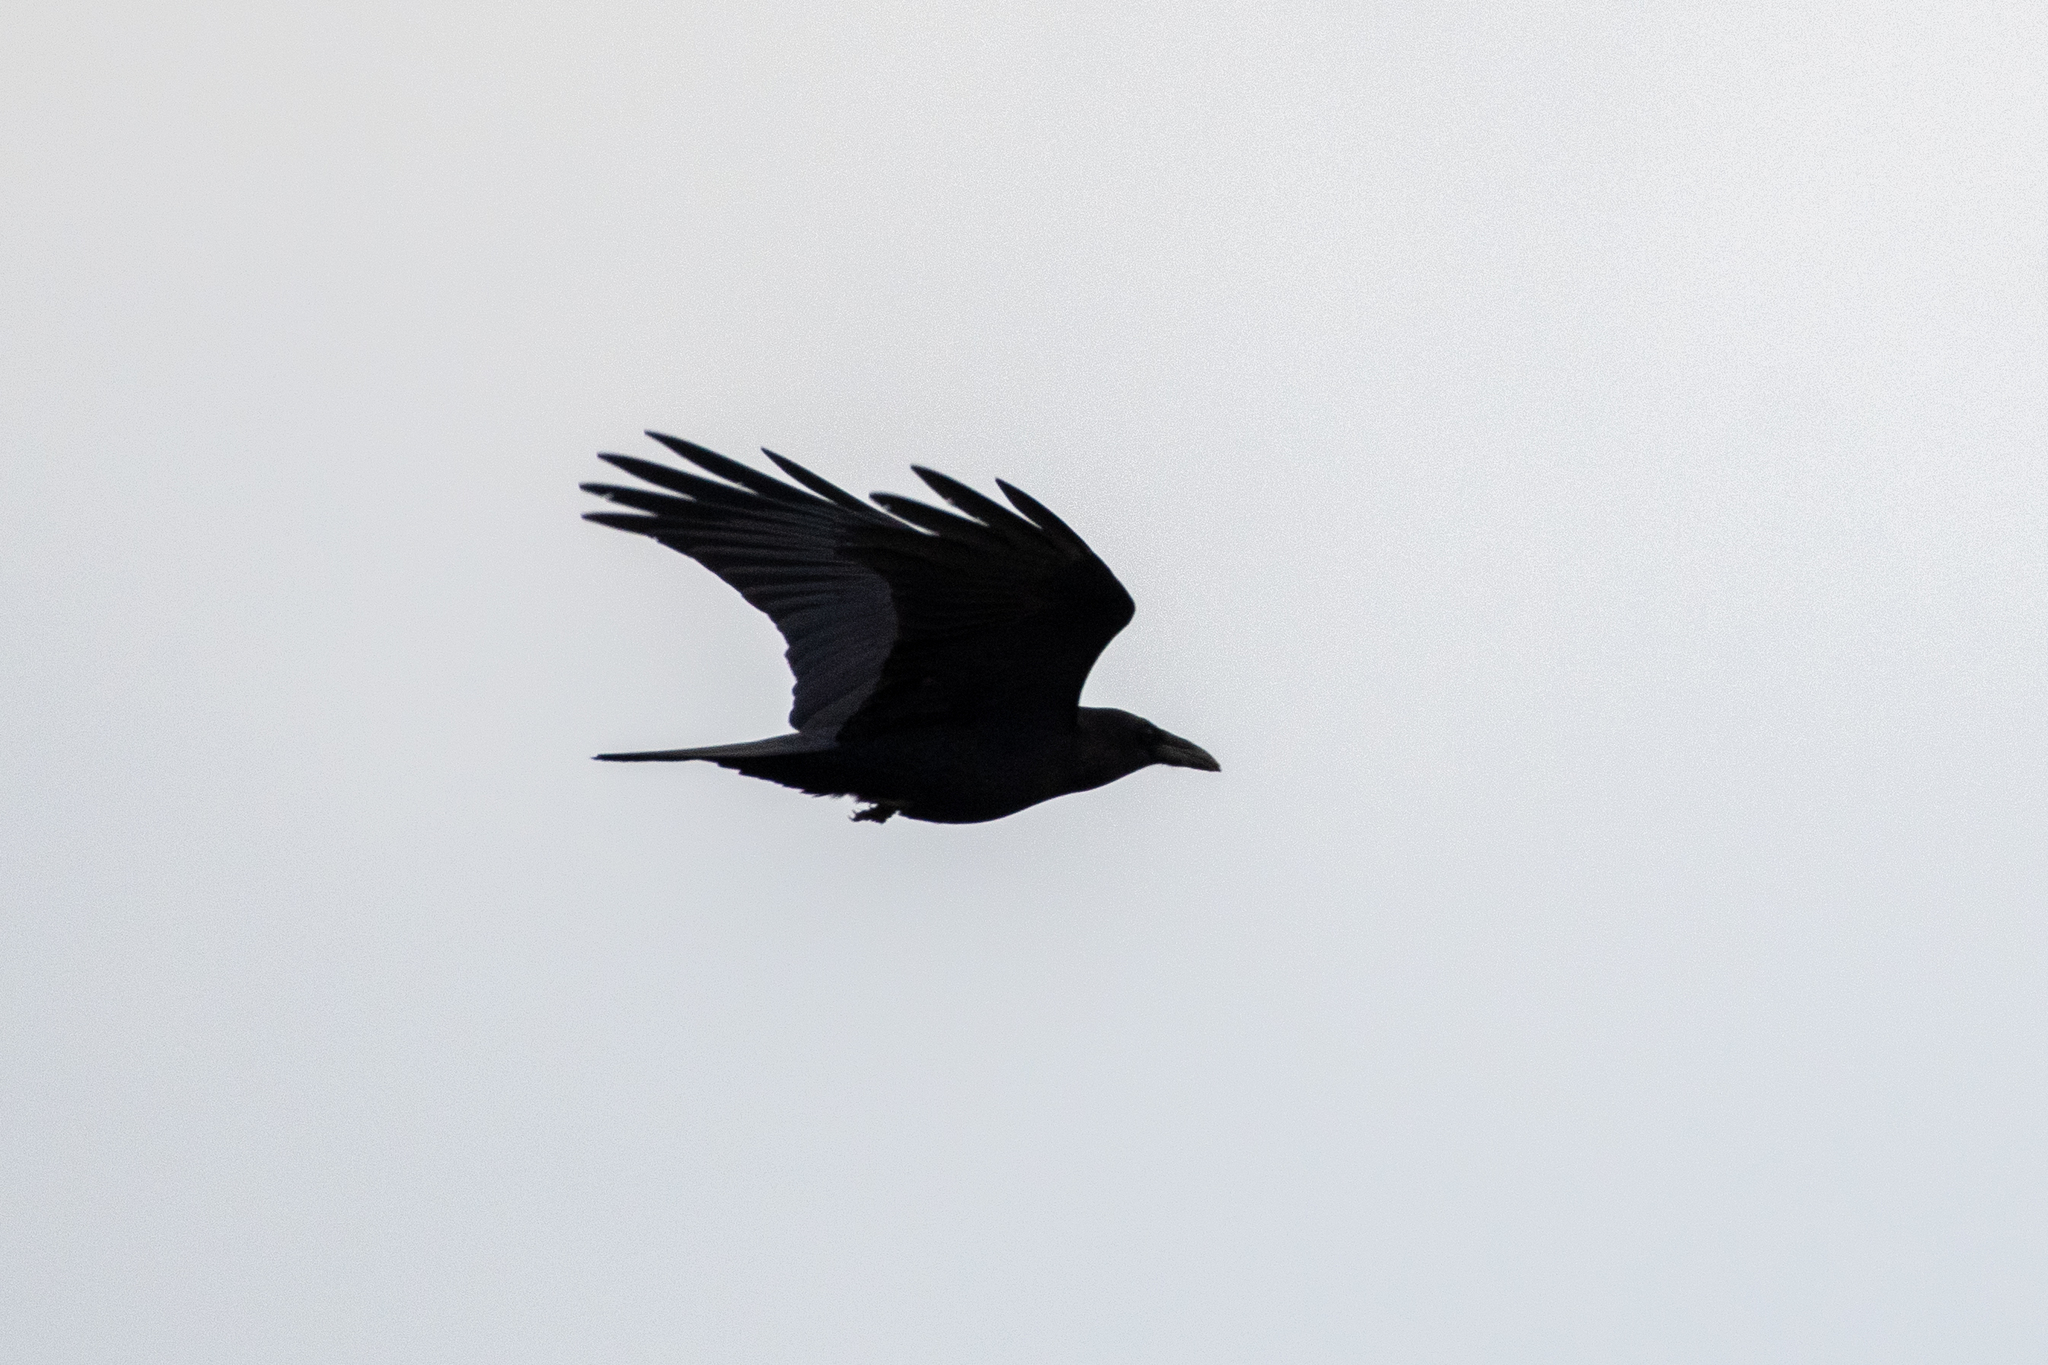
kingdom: Animalia
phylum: Chordata
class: Aves
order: Passeriformes
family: Corvidae
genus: Corvus
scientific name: Corvus corax
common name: Common raven
